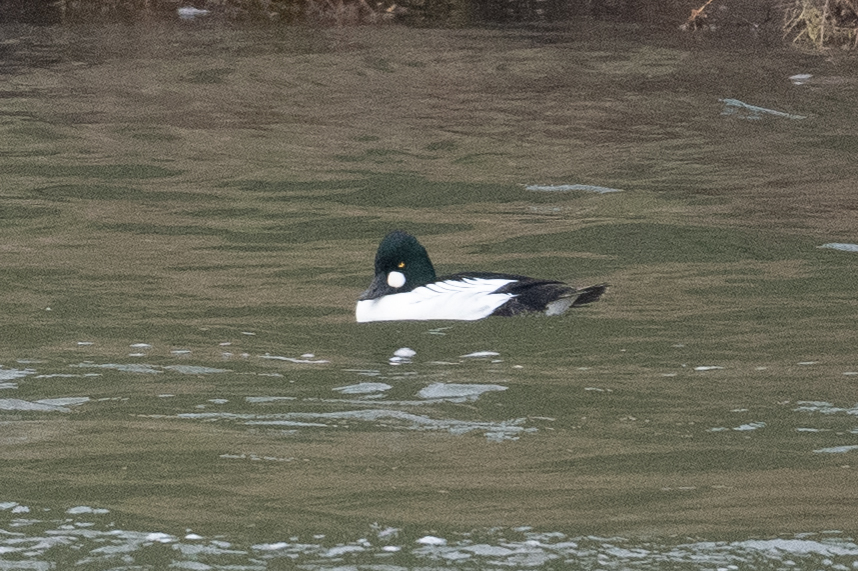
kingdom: Animalia
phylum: Chordata
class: Aves
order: Anseriformes
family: Anatidae
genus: Bucephala
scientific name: Bucephala clangula
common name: Common goldeneye
